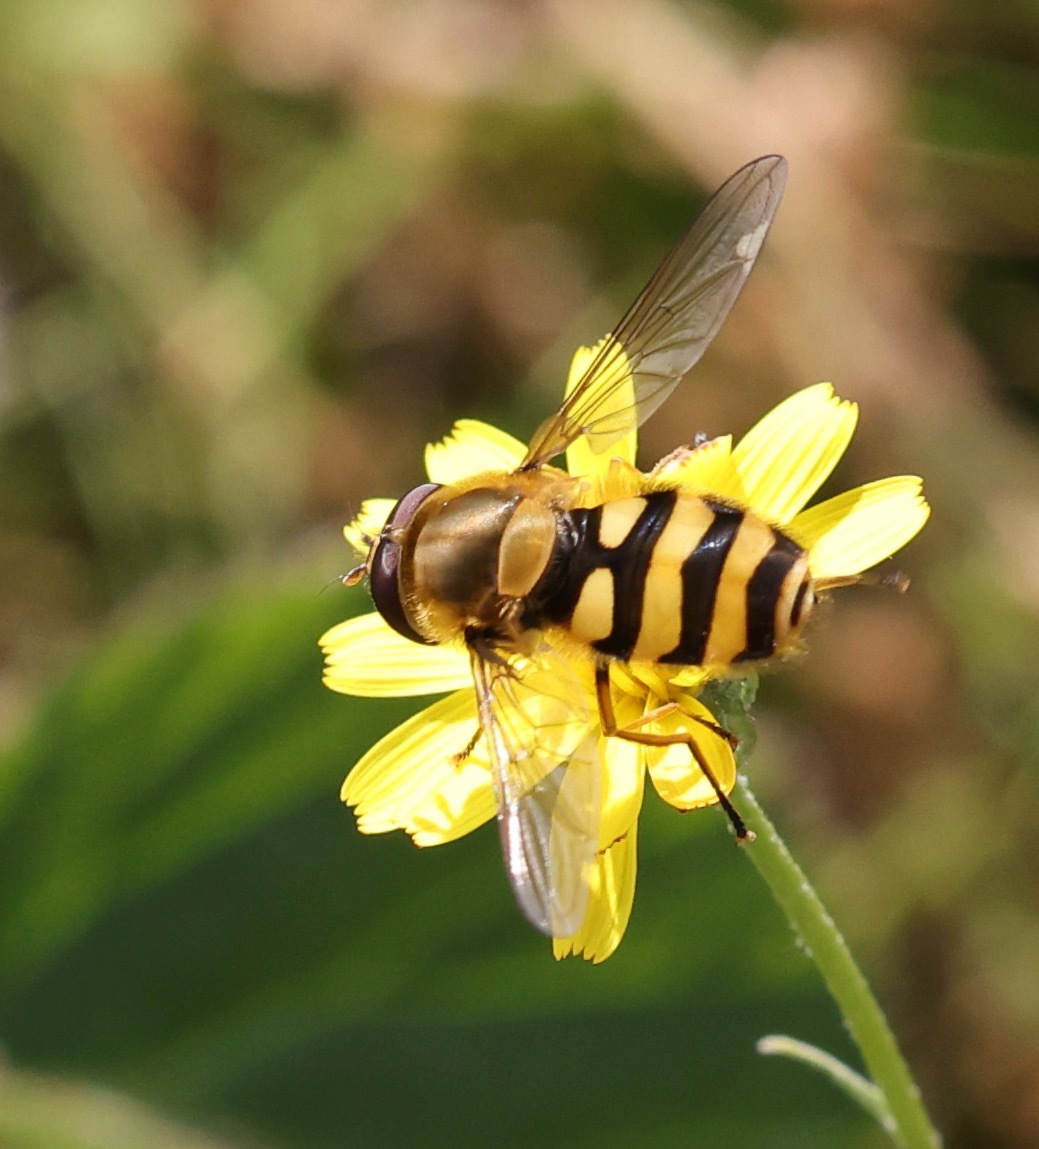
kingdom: Animalia
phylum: Arthropoda
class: Insecta
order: Diptera
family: Syrphidae
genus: Syrphus
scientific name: Syrphus torvus
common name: Hairy-eyed flower fly
